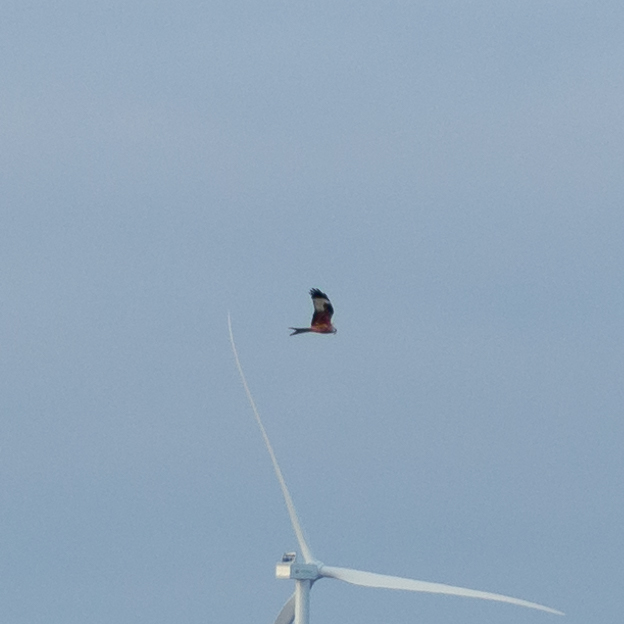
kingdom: Animalia
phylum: Chordata
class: Aves
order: Accipitriformes
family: Accipitridae
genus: Milvus
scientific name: Milvus milvus
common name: Red kite
